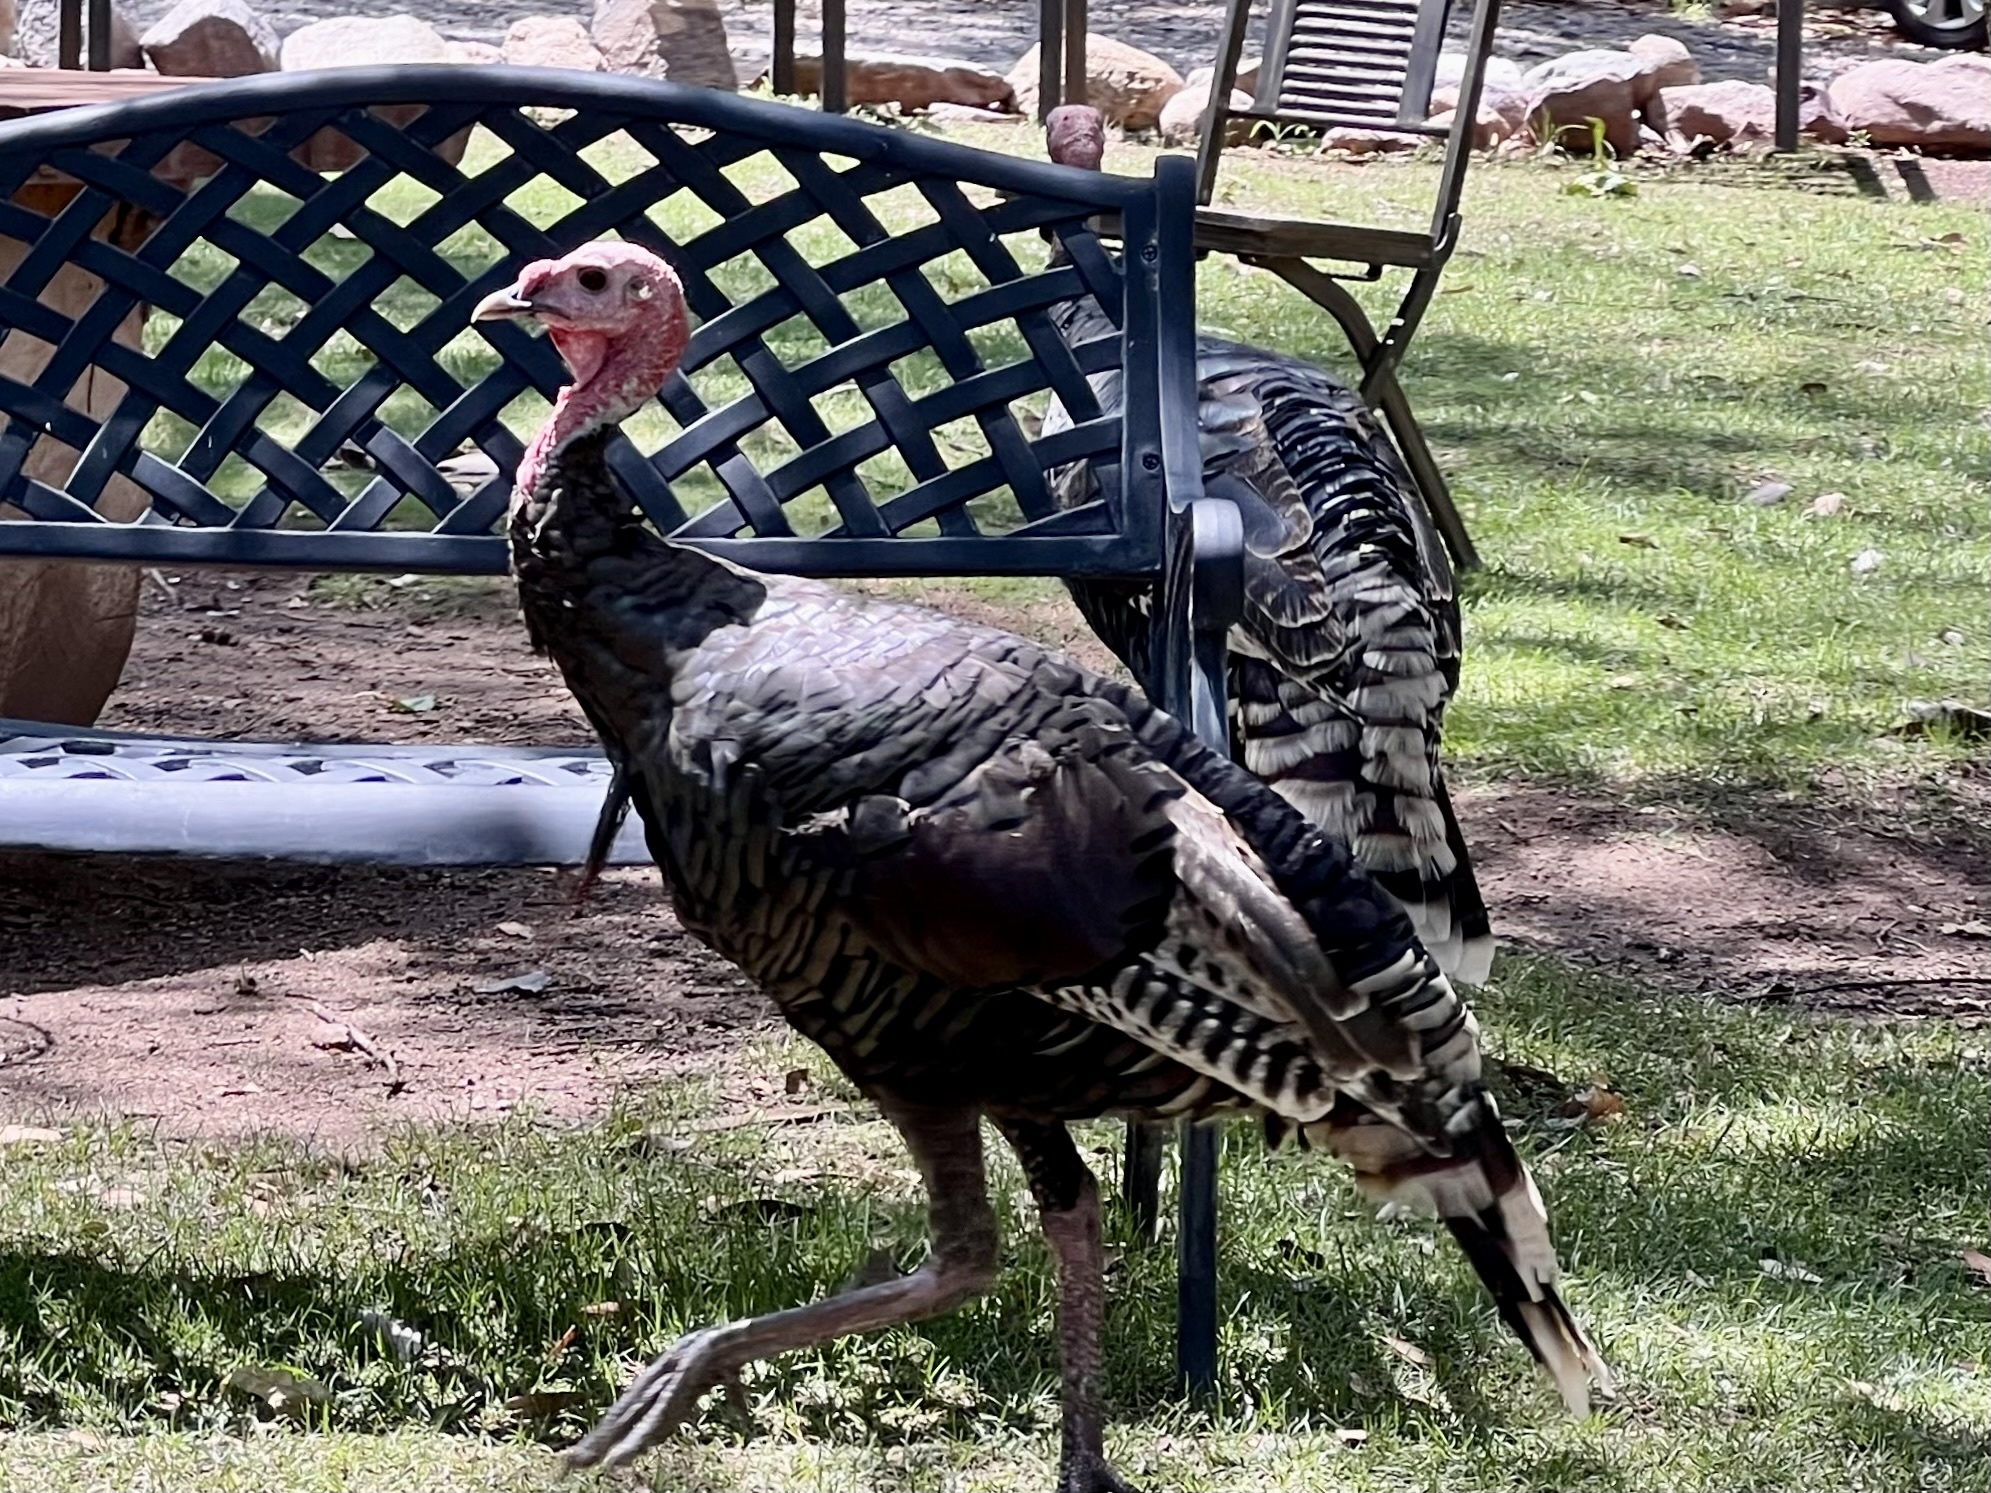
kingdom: Animalia
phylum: Chordata
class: Aves
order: Galliformes
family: Phasianidae
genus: Meleagris
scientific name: Meleagris gallopavo
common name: Wild turkey
